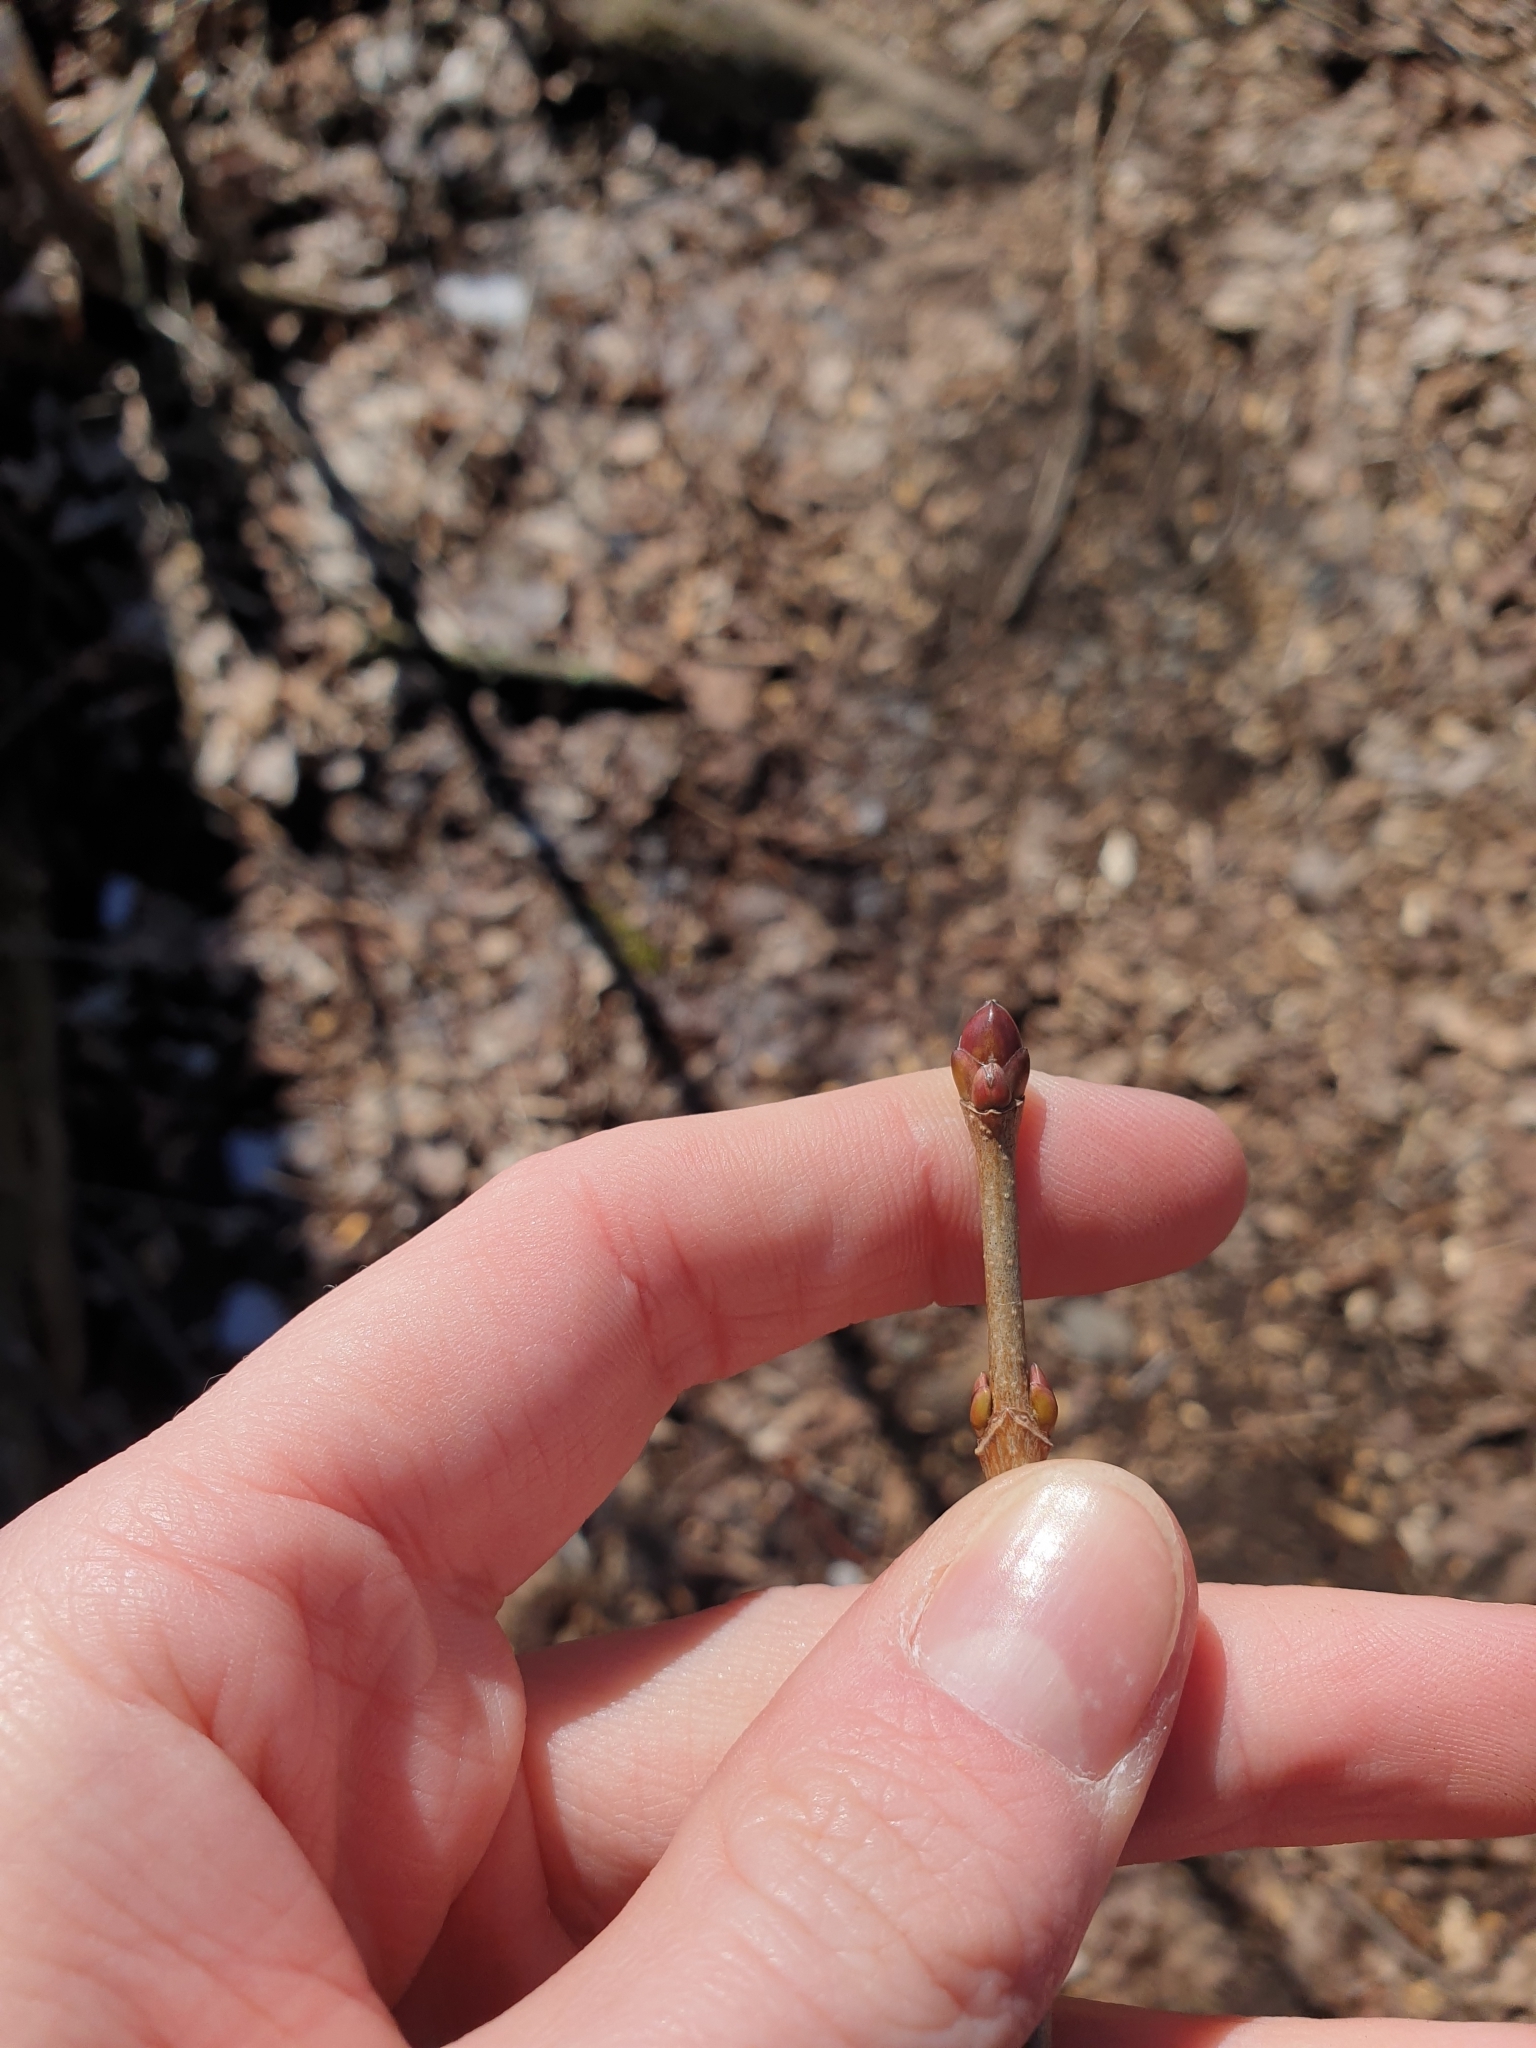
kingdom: Plantae
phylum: Tracheophyta
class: Magnoliopsida
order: Sapindales
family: Sapindaceae
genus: Acer
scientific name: Acer platanoides
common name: Norway maple
